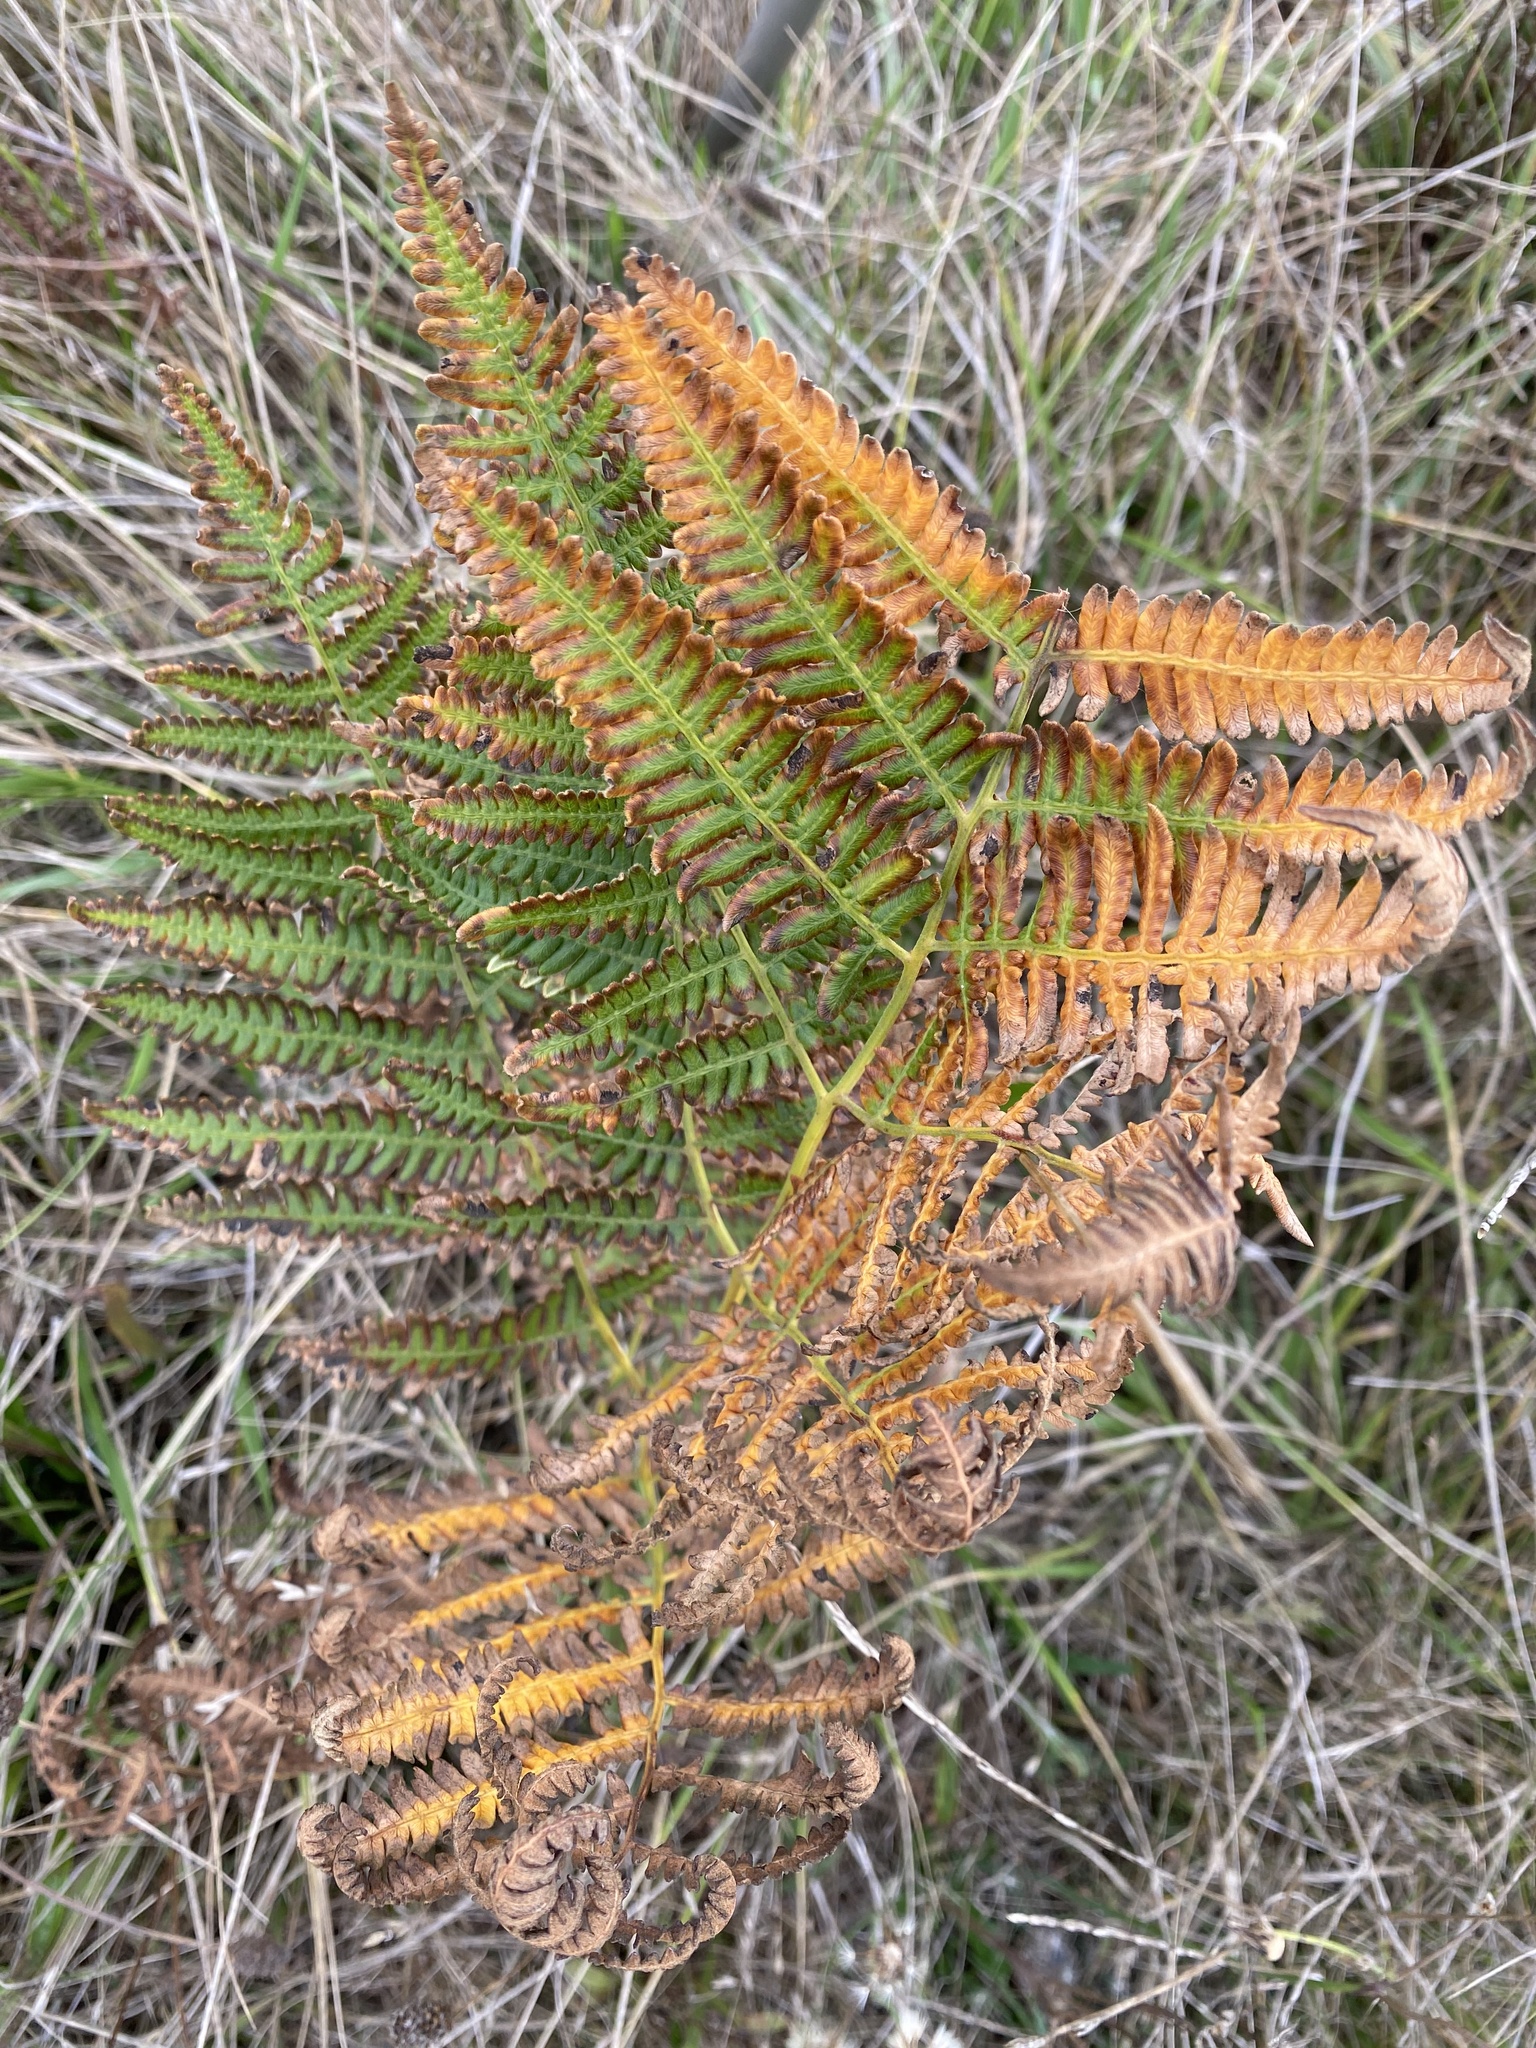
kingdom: Plantae
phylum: Tracheophyta
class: Polypodiopsida
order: Polypodiales
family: Dennstaedtiaceae
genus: Pteridium
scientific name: Pteridium aquilinum
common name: Bracken
